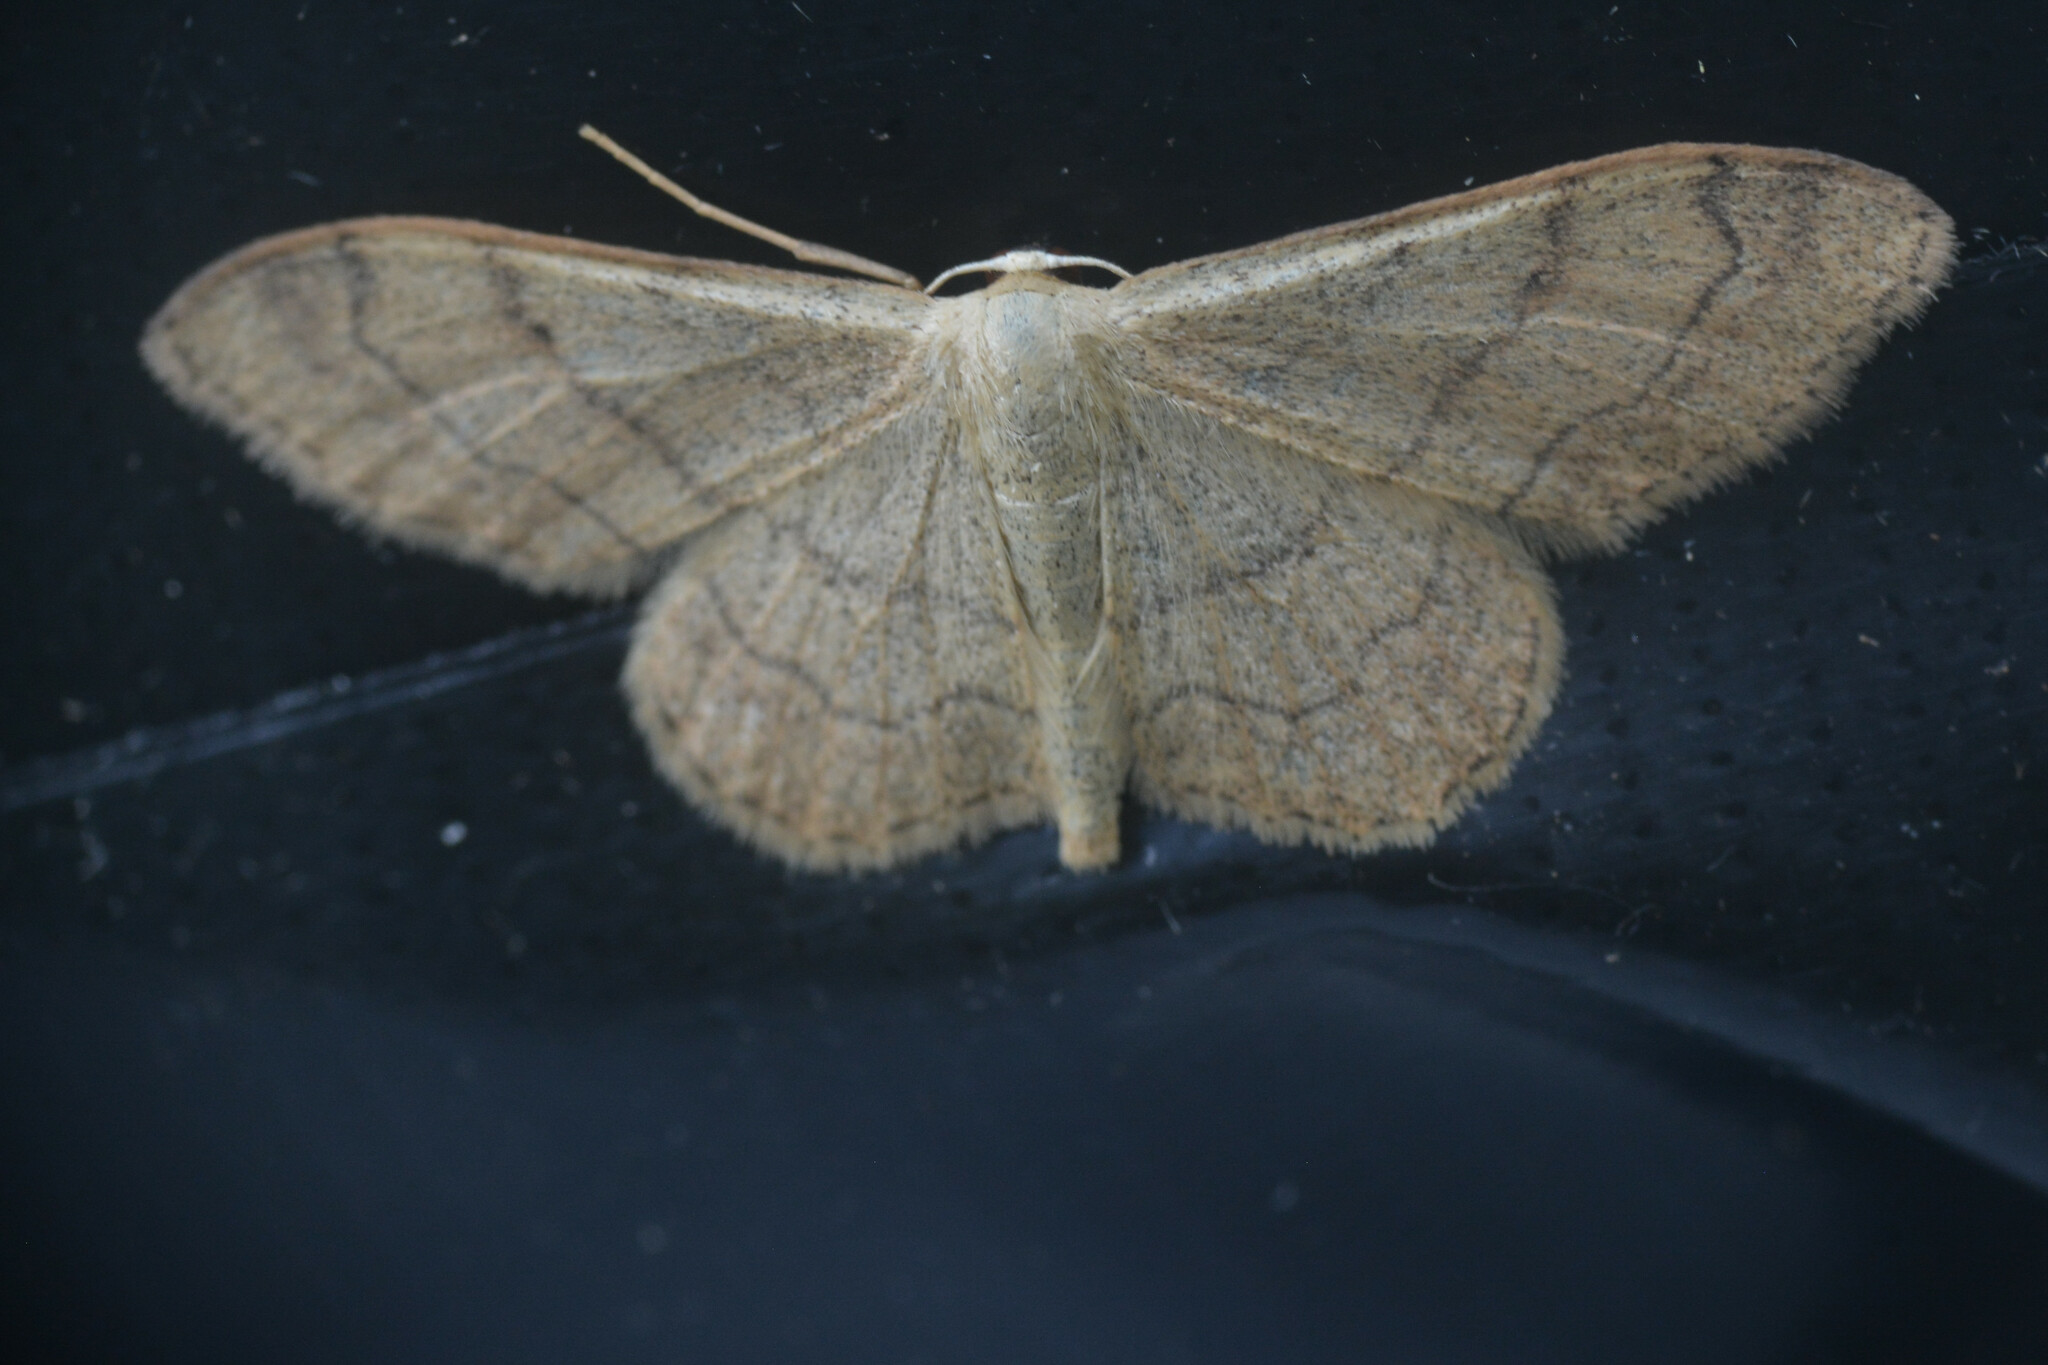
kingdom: Animalia
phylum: Arthropoda
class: Insecta
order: Lepidoptera
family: Geometridae
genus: Idaea
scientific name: Idaea aversata
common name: Riband wave
